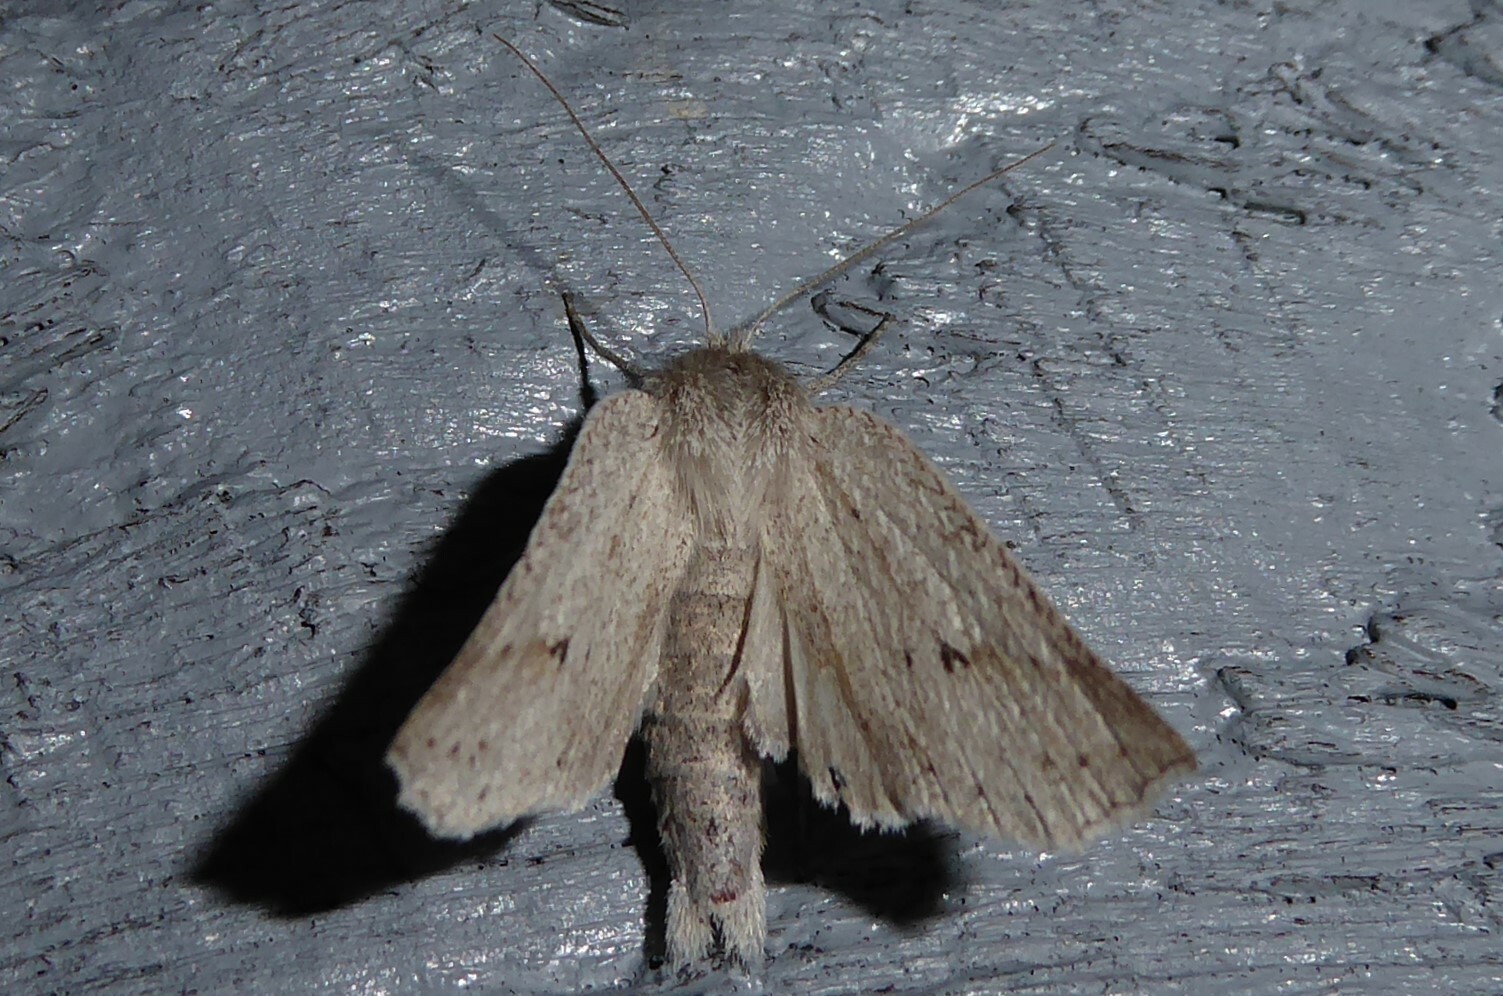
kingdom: Animalia
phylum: Arthropoda
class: Insecta
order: Lepidoptera
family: Geometridae
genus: Declana
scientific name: Declana leptomera
